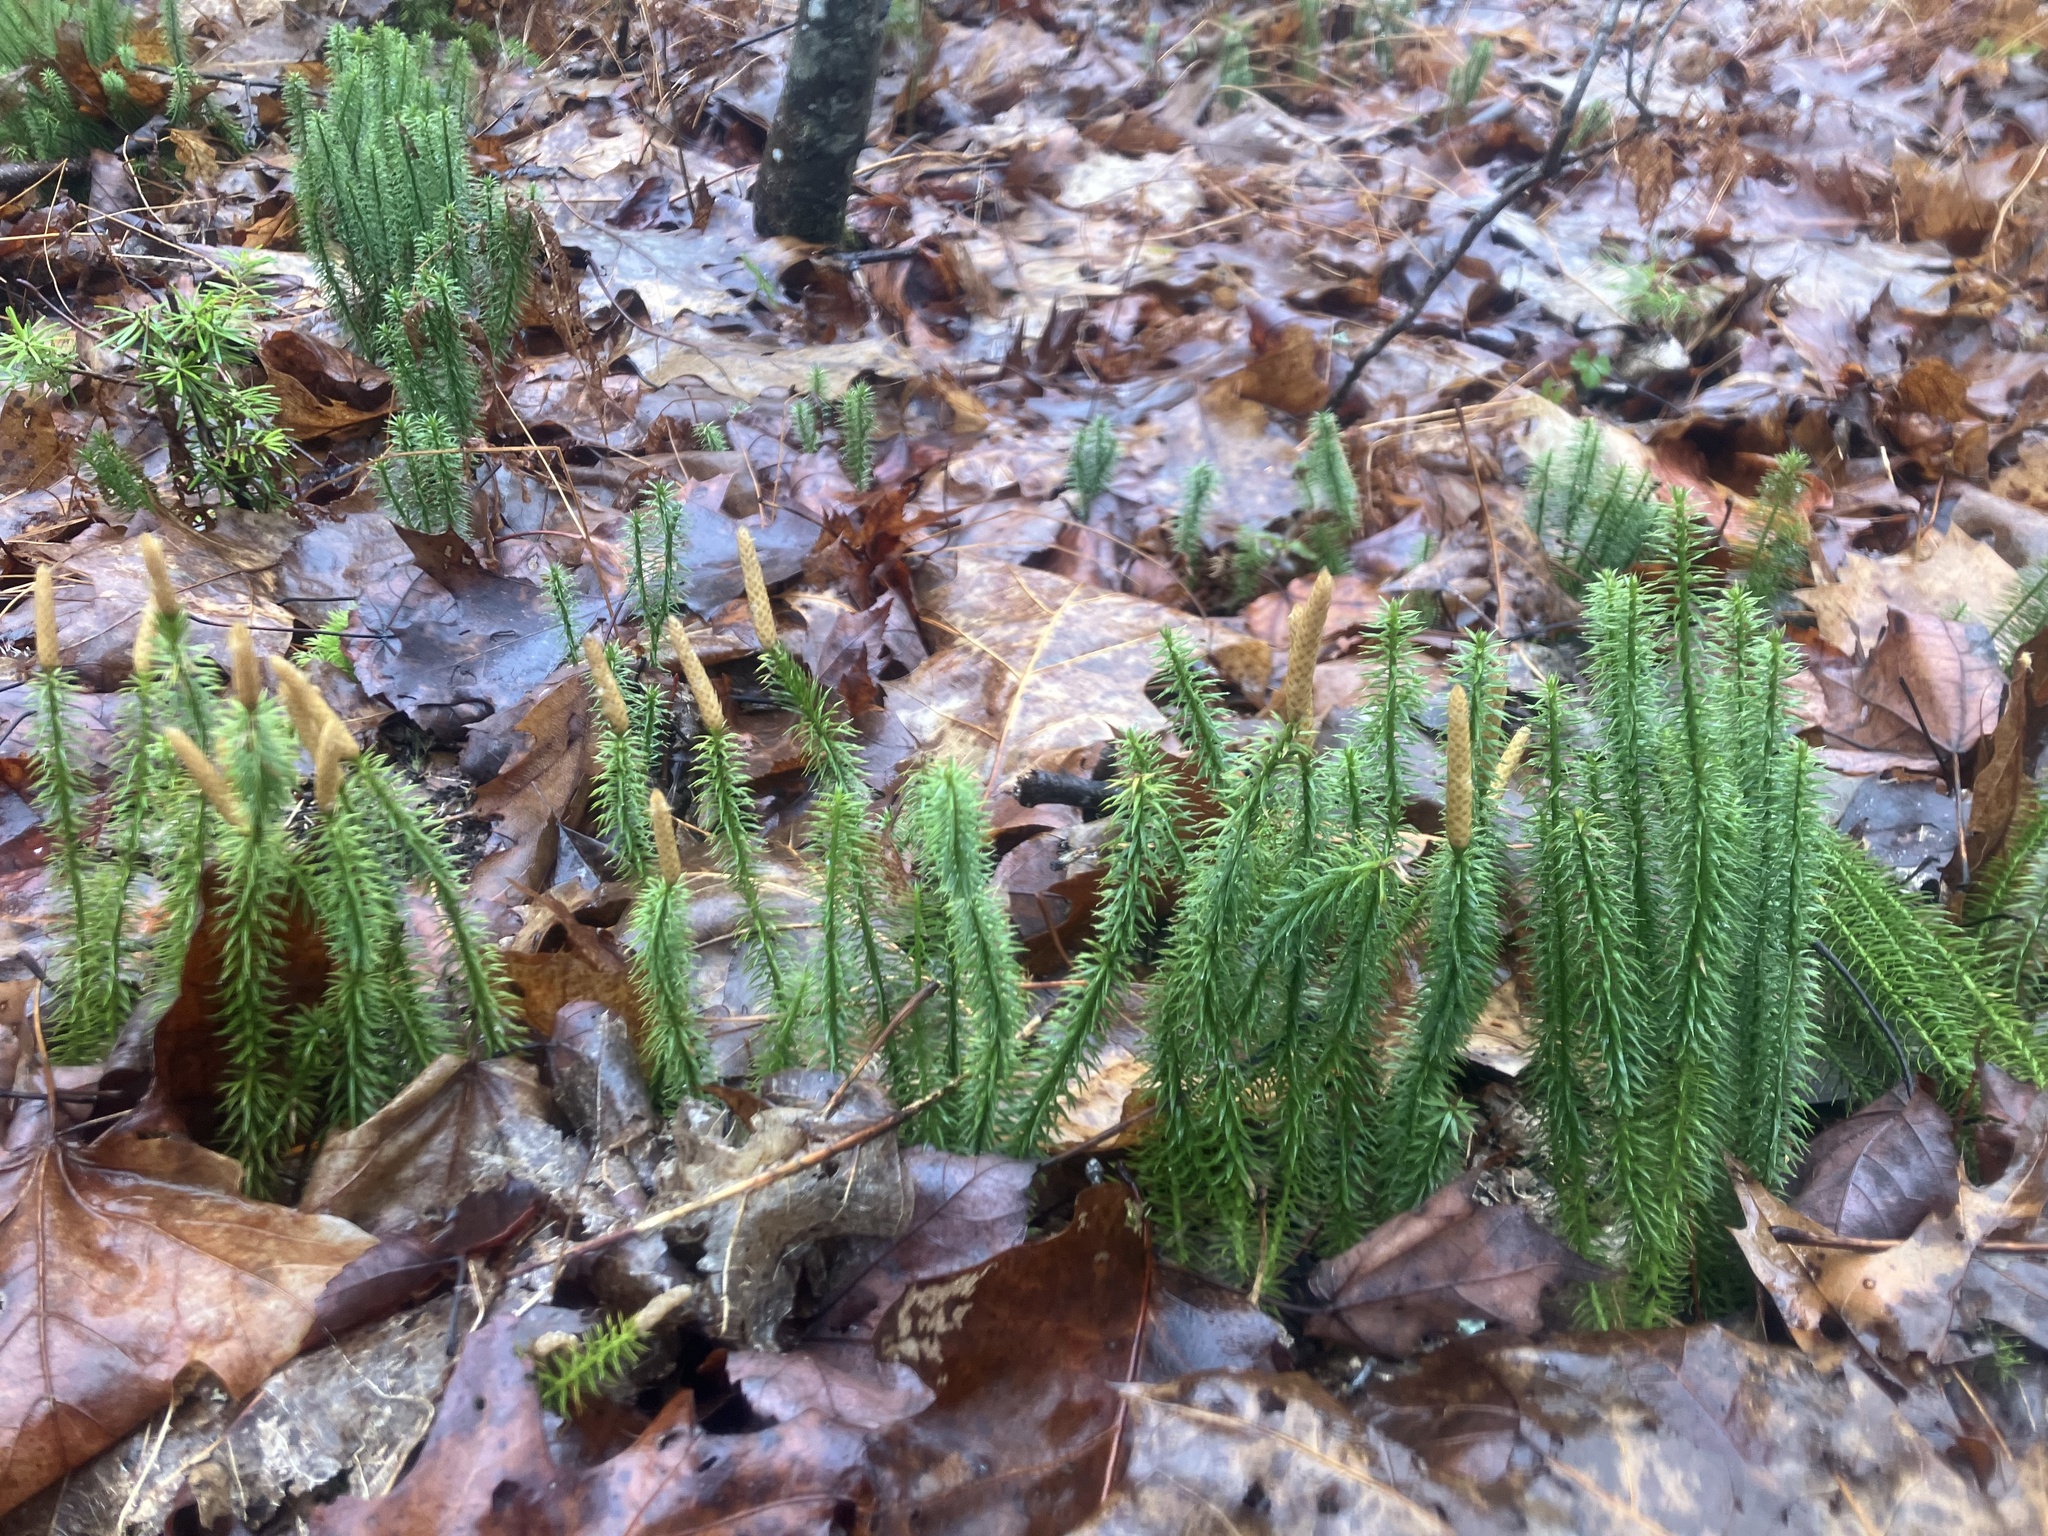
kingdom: Plantae
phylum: Tracheophyta
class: Lycopodiopsida
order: Lycopodiales
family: Lycopodiaceae
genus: Spinulum
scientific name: Spinulum annotinum
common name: Interrupted club-moss
